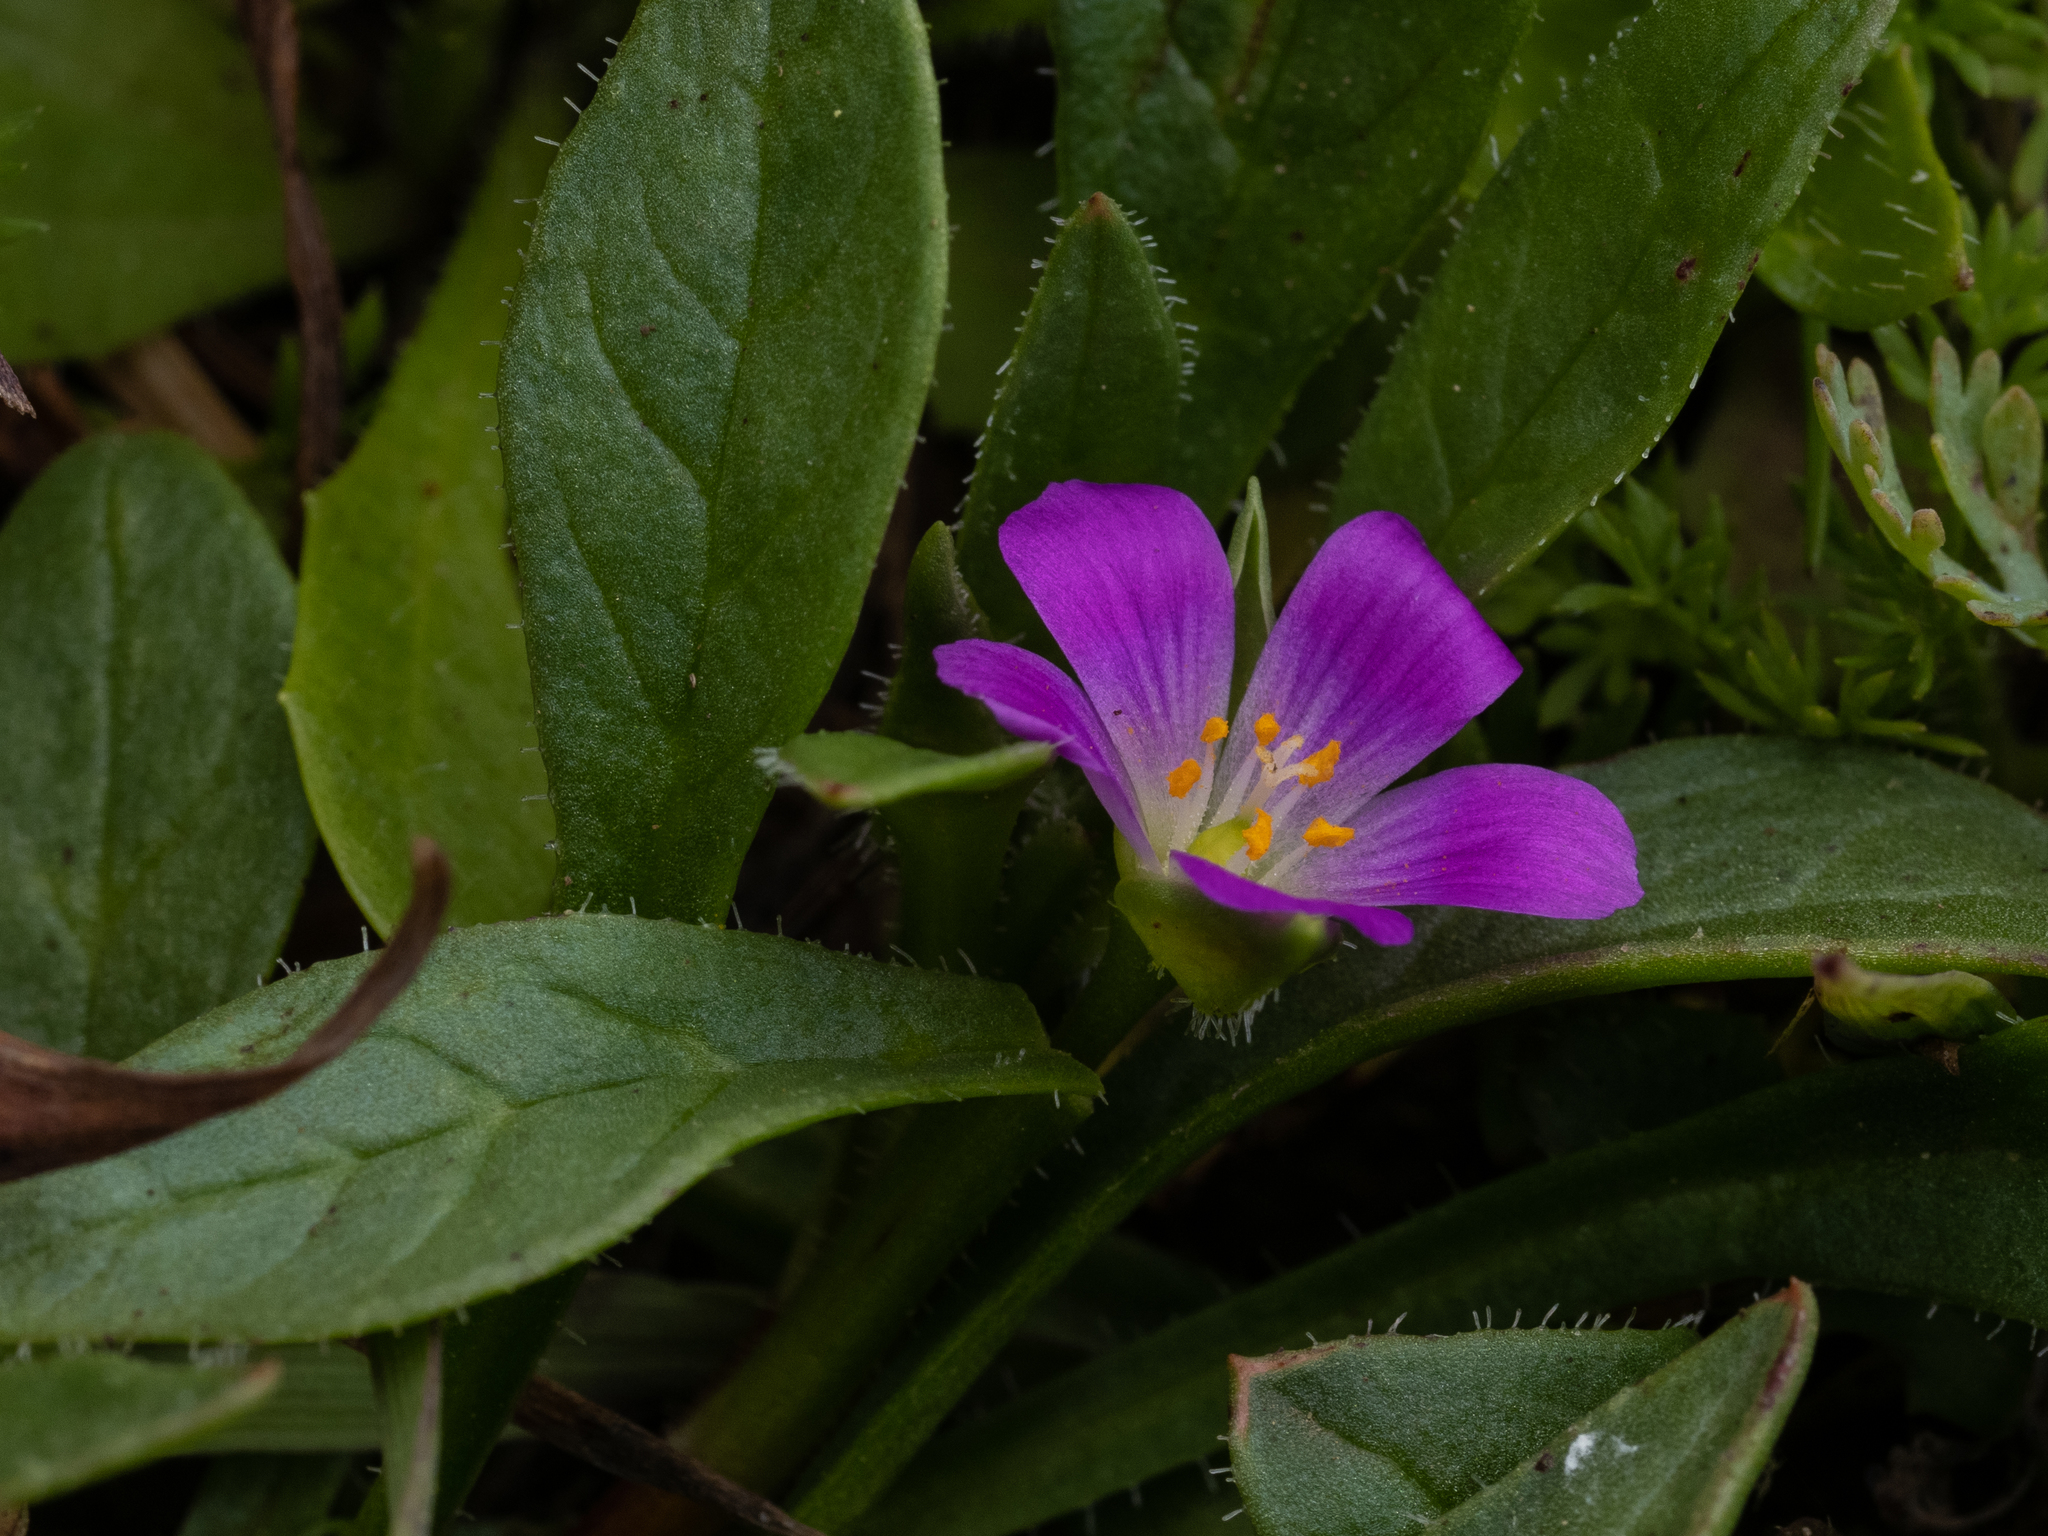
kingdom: Plantae
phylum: Tracheophyta
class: Magnoliopsida
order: Caryophyllales
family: Montiaceae
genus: Calandrinia
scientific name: Calandrinia menziesii
